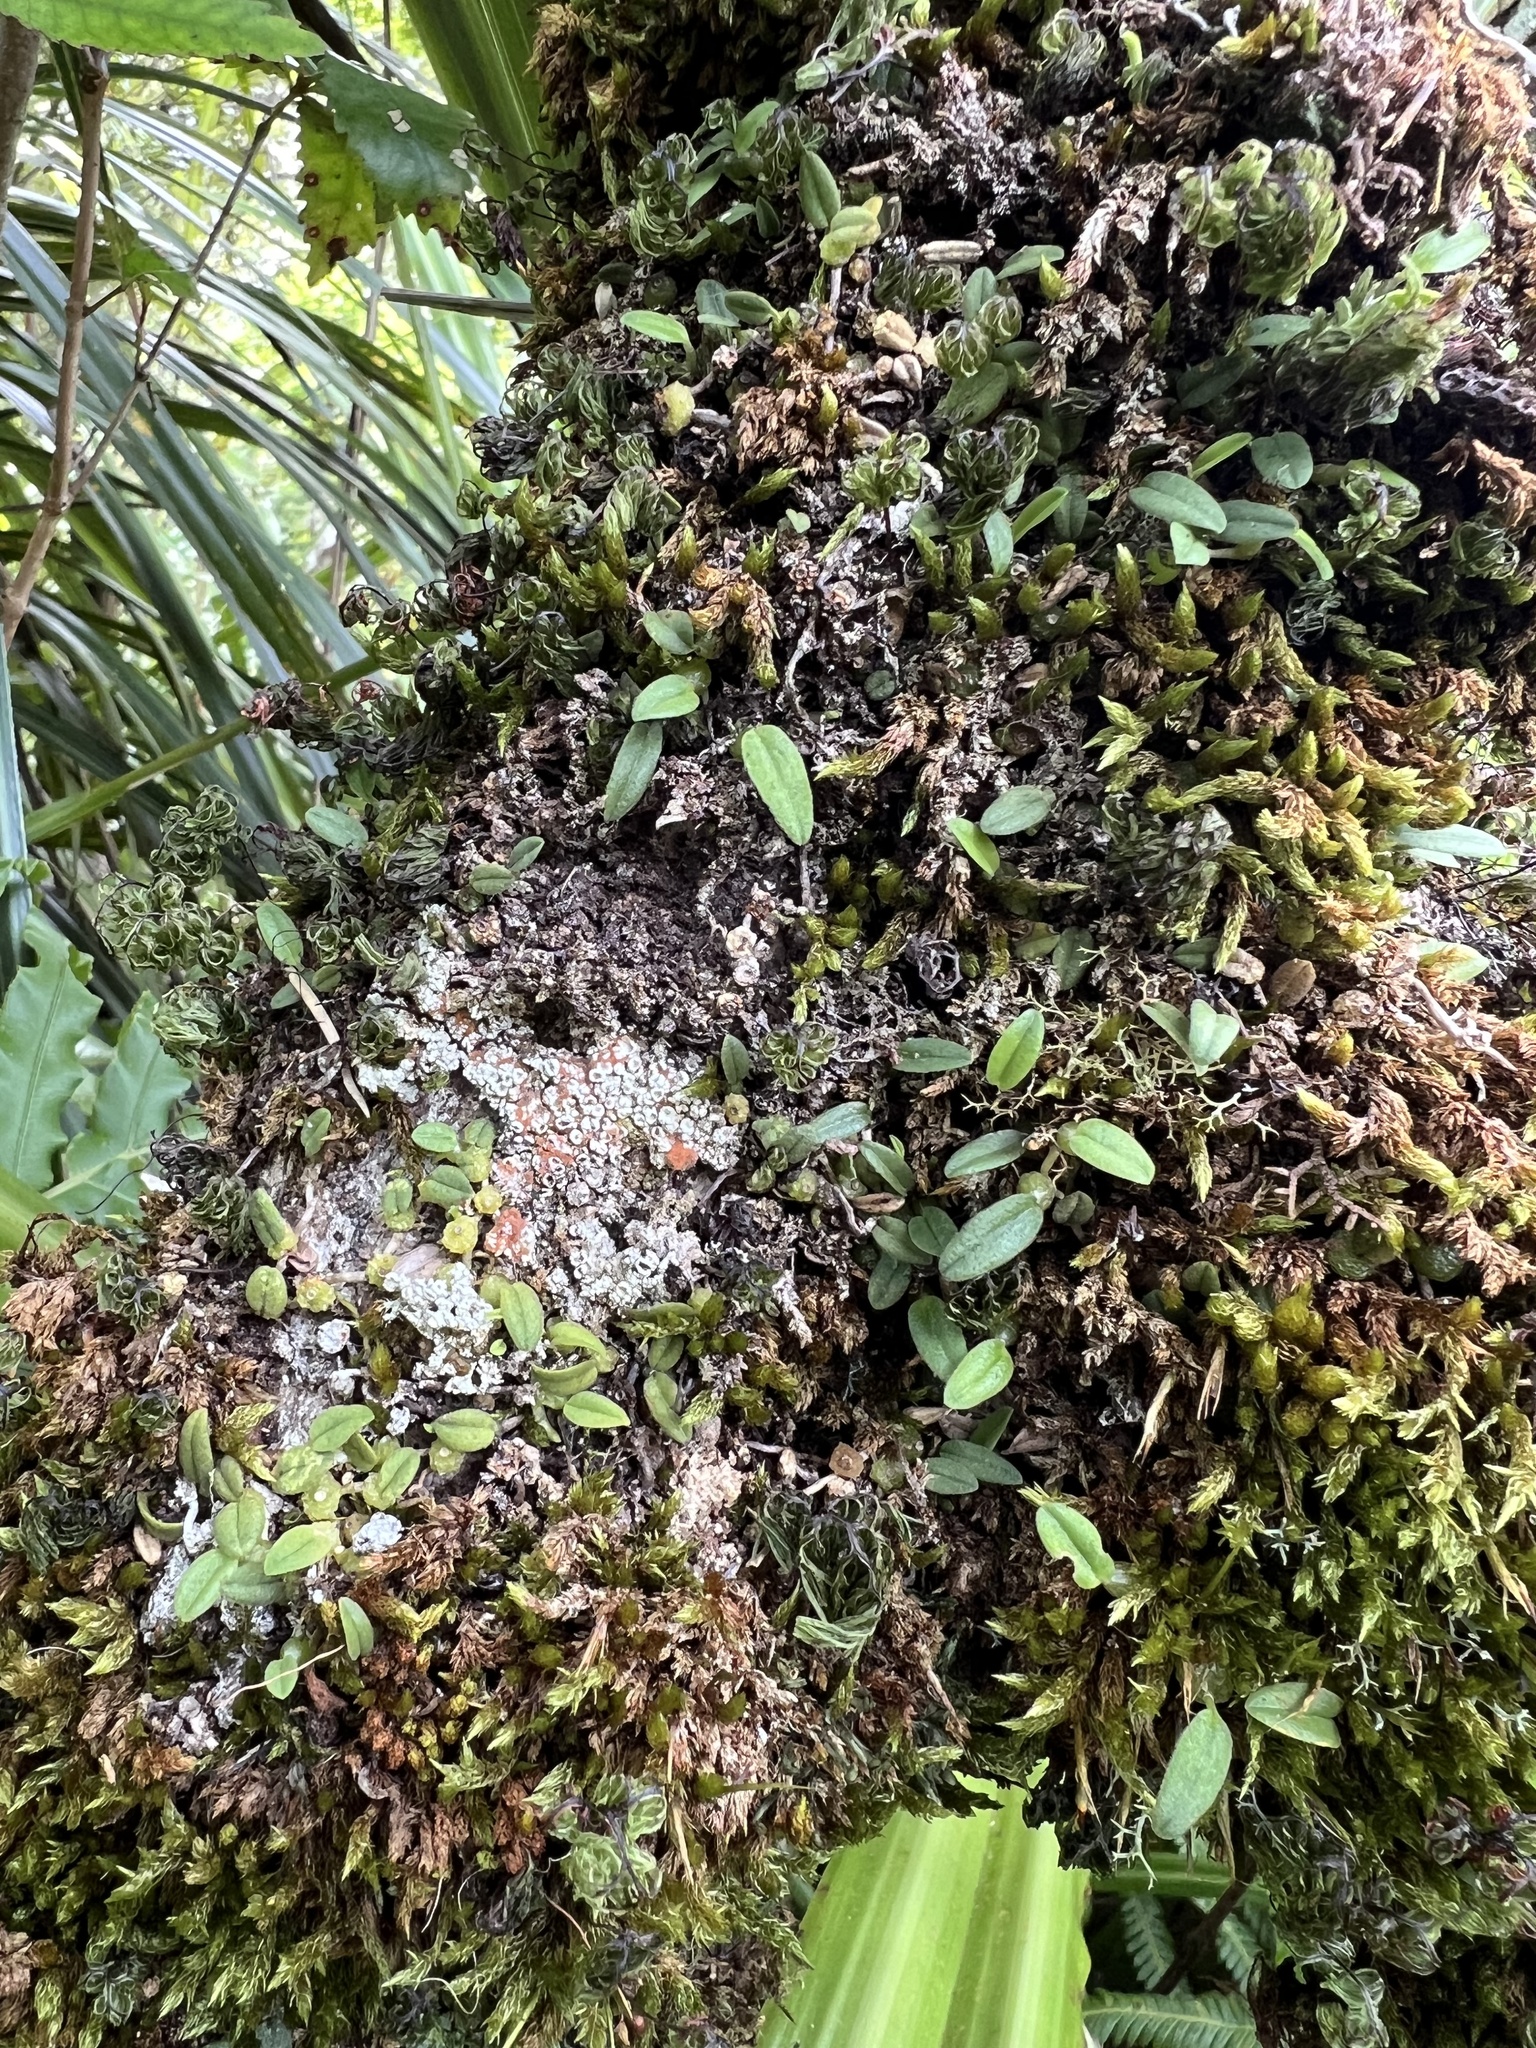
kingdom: Plantae
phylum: Tracheophyta
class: Liliopsida
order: Asparagales
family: Orchidaceae
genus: Bulbophyllum
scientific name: Bulbophyllum pygmaeum
